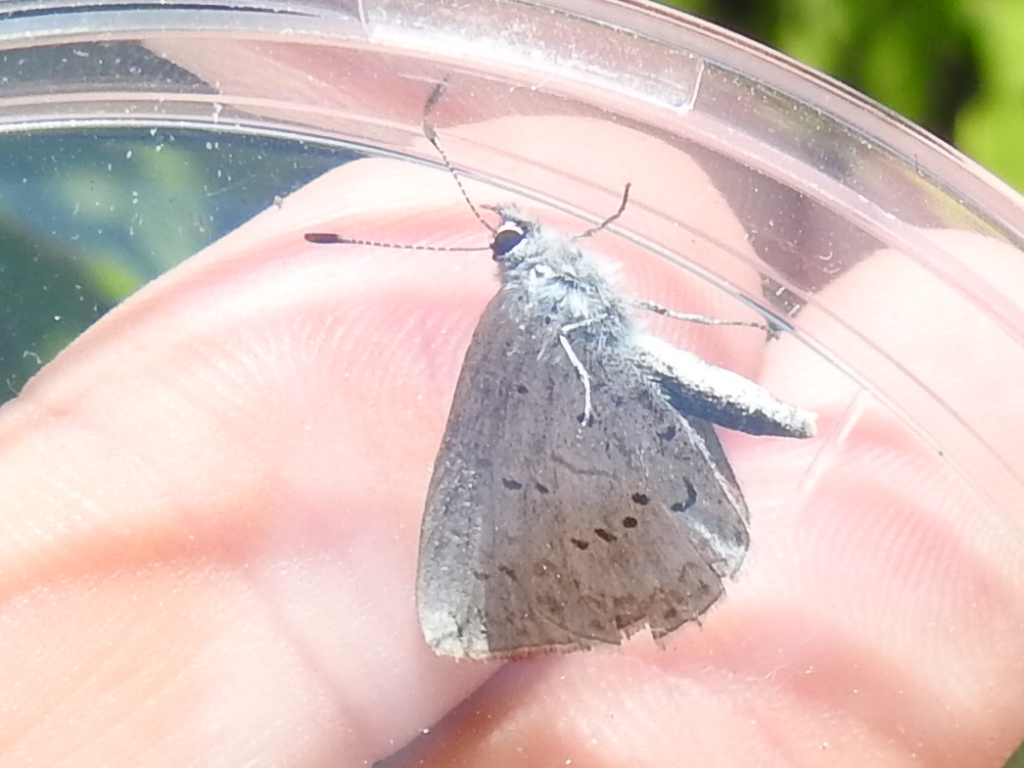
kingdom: Animalia
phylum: Arthropoda
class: Insecta
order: Lepidoptera
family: Lycaenidae
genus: Celastrina
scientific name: Celastrina ladon
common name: Spring azure
